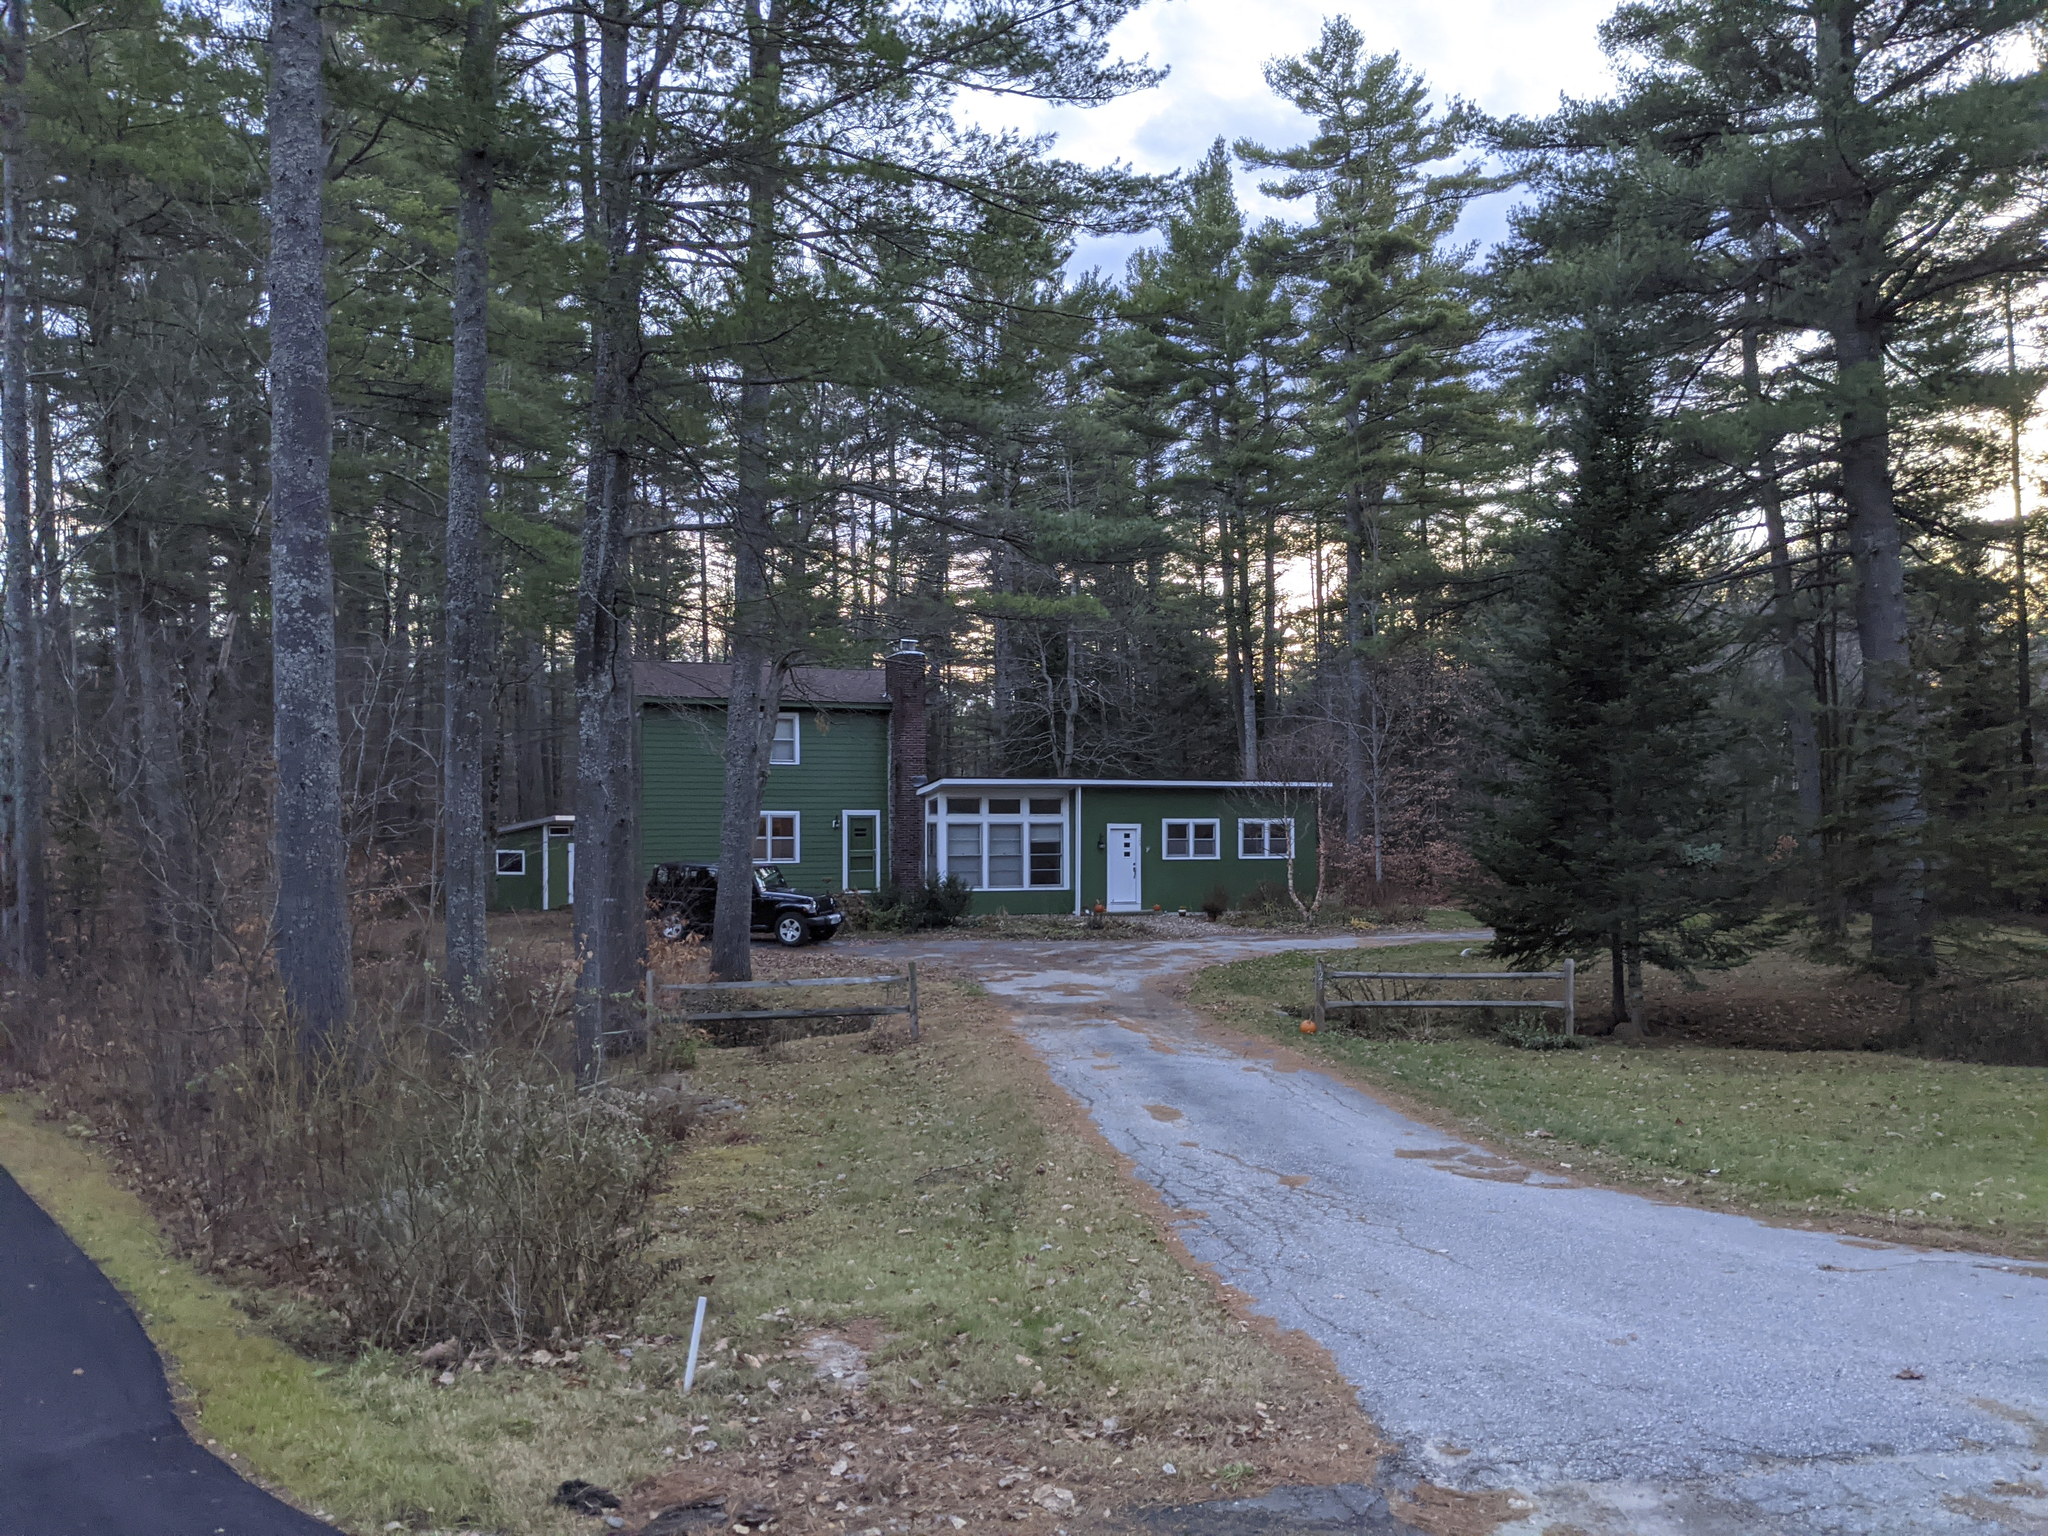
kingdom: Plantae
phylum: Tracheophyta
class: Pinopsida
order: Pinales
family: Pinaceae
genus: Pinus
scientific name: Pinus strobus
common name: Weymouth pine
